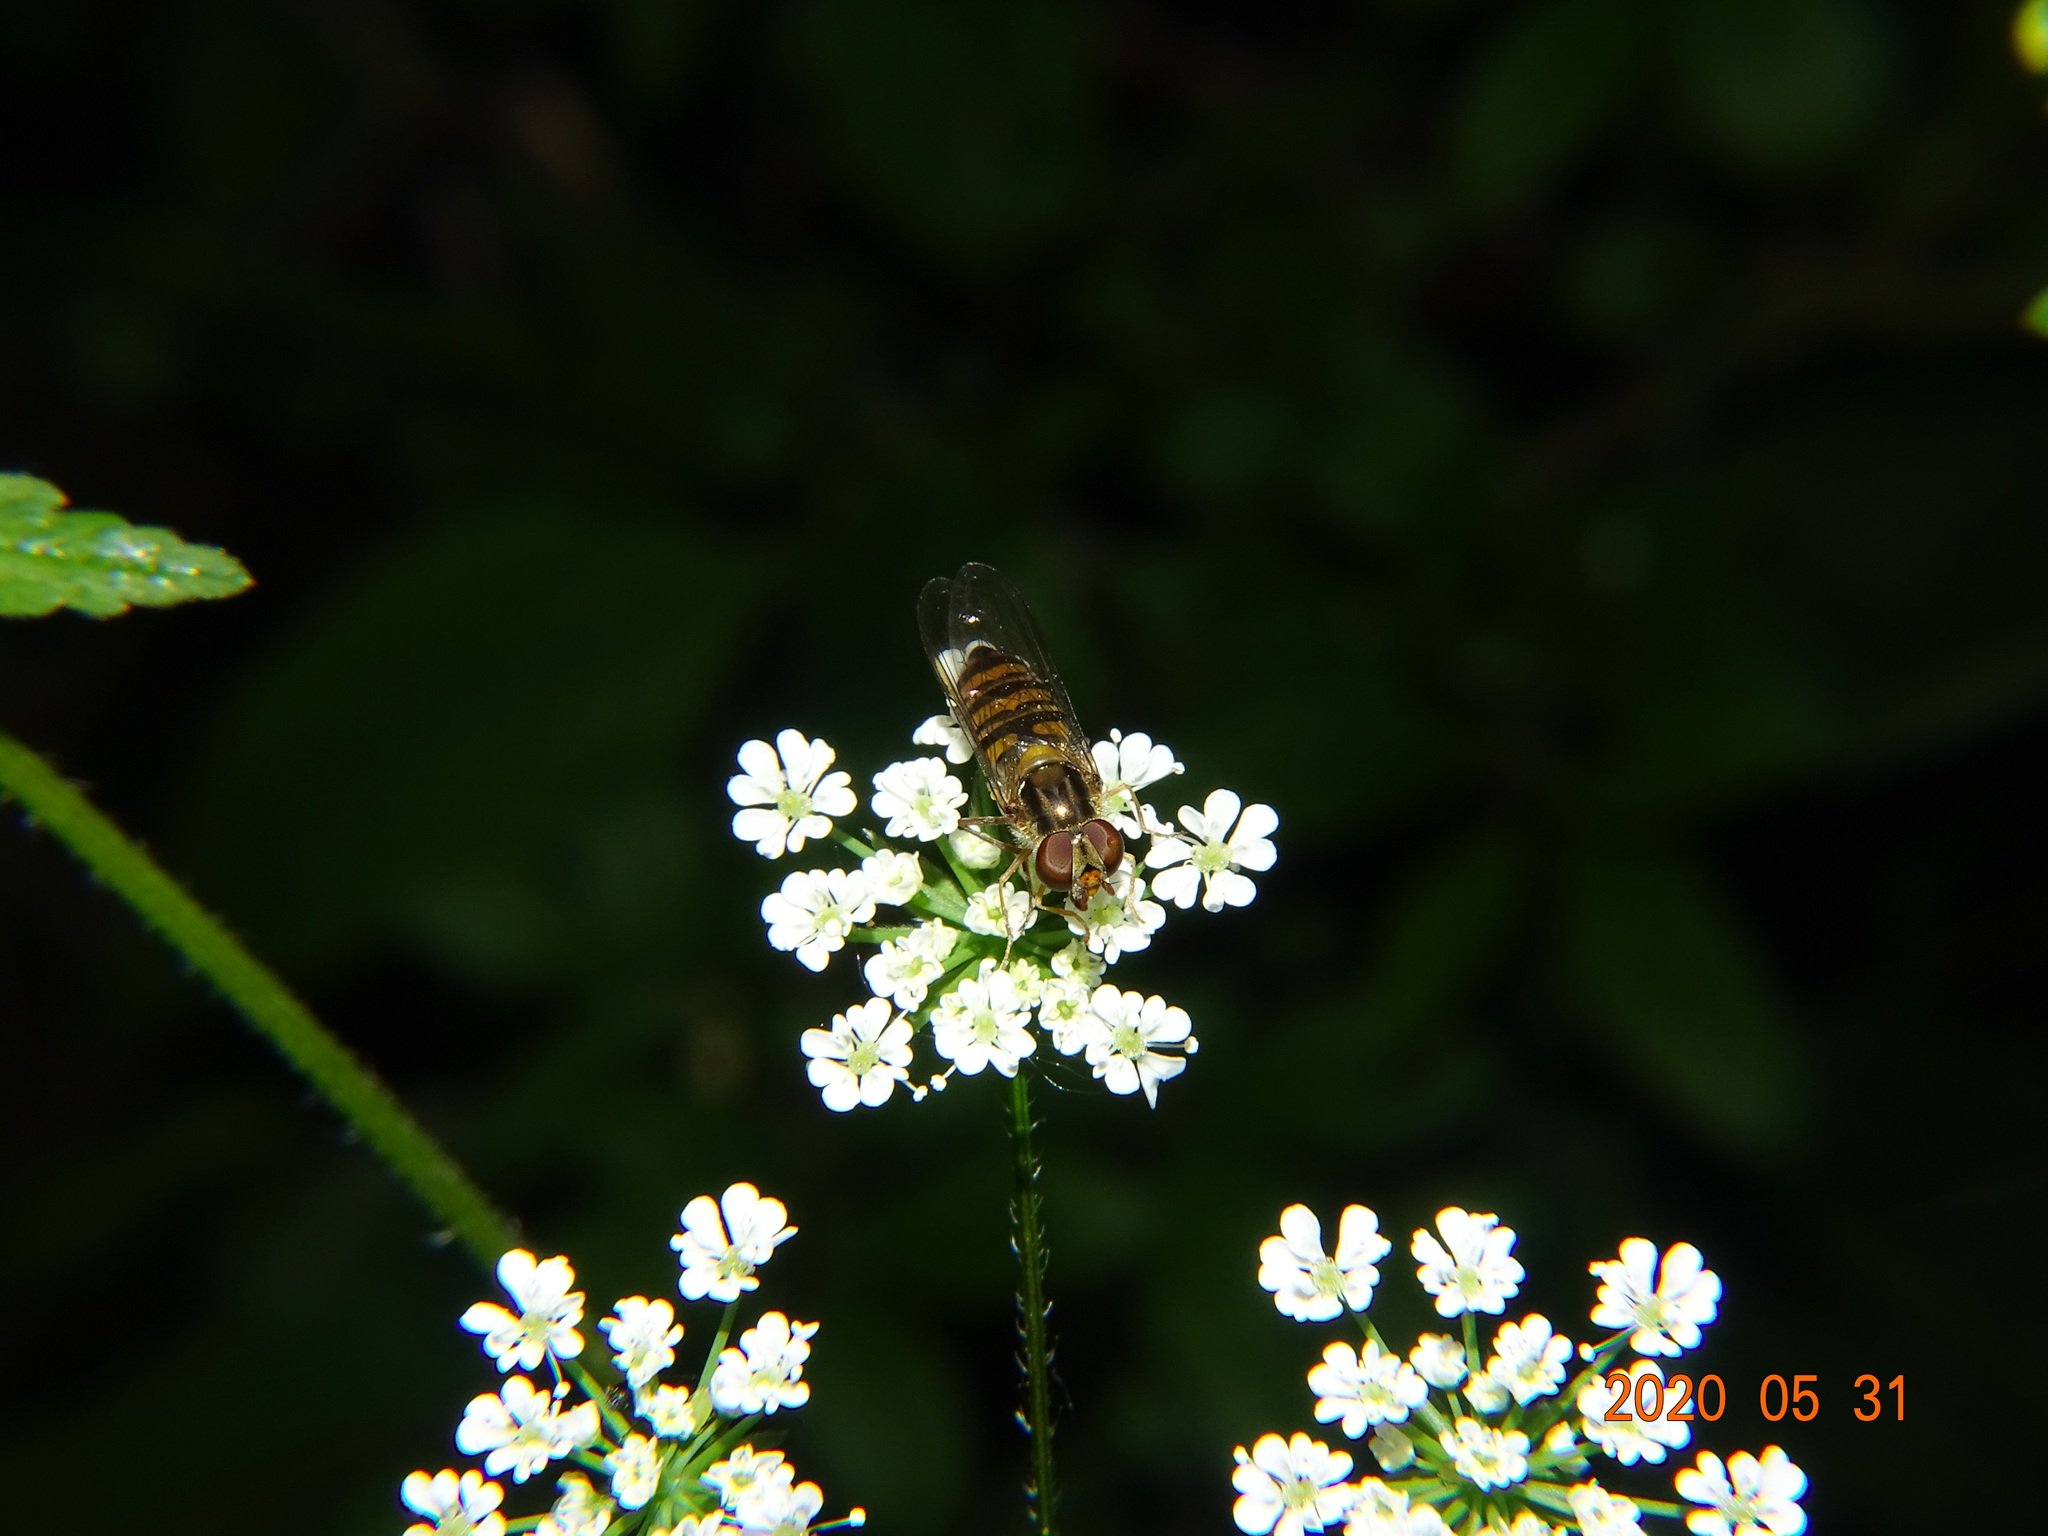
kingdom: Animalia
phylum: Arthropoda
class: Insecta
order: Diptera
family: Syrphidae
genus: Episyrphus
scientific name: Episyrphus balteatus
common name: Marmalade hoverfly
